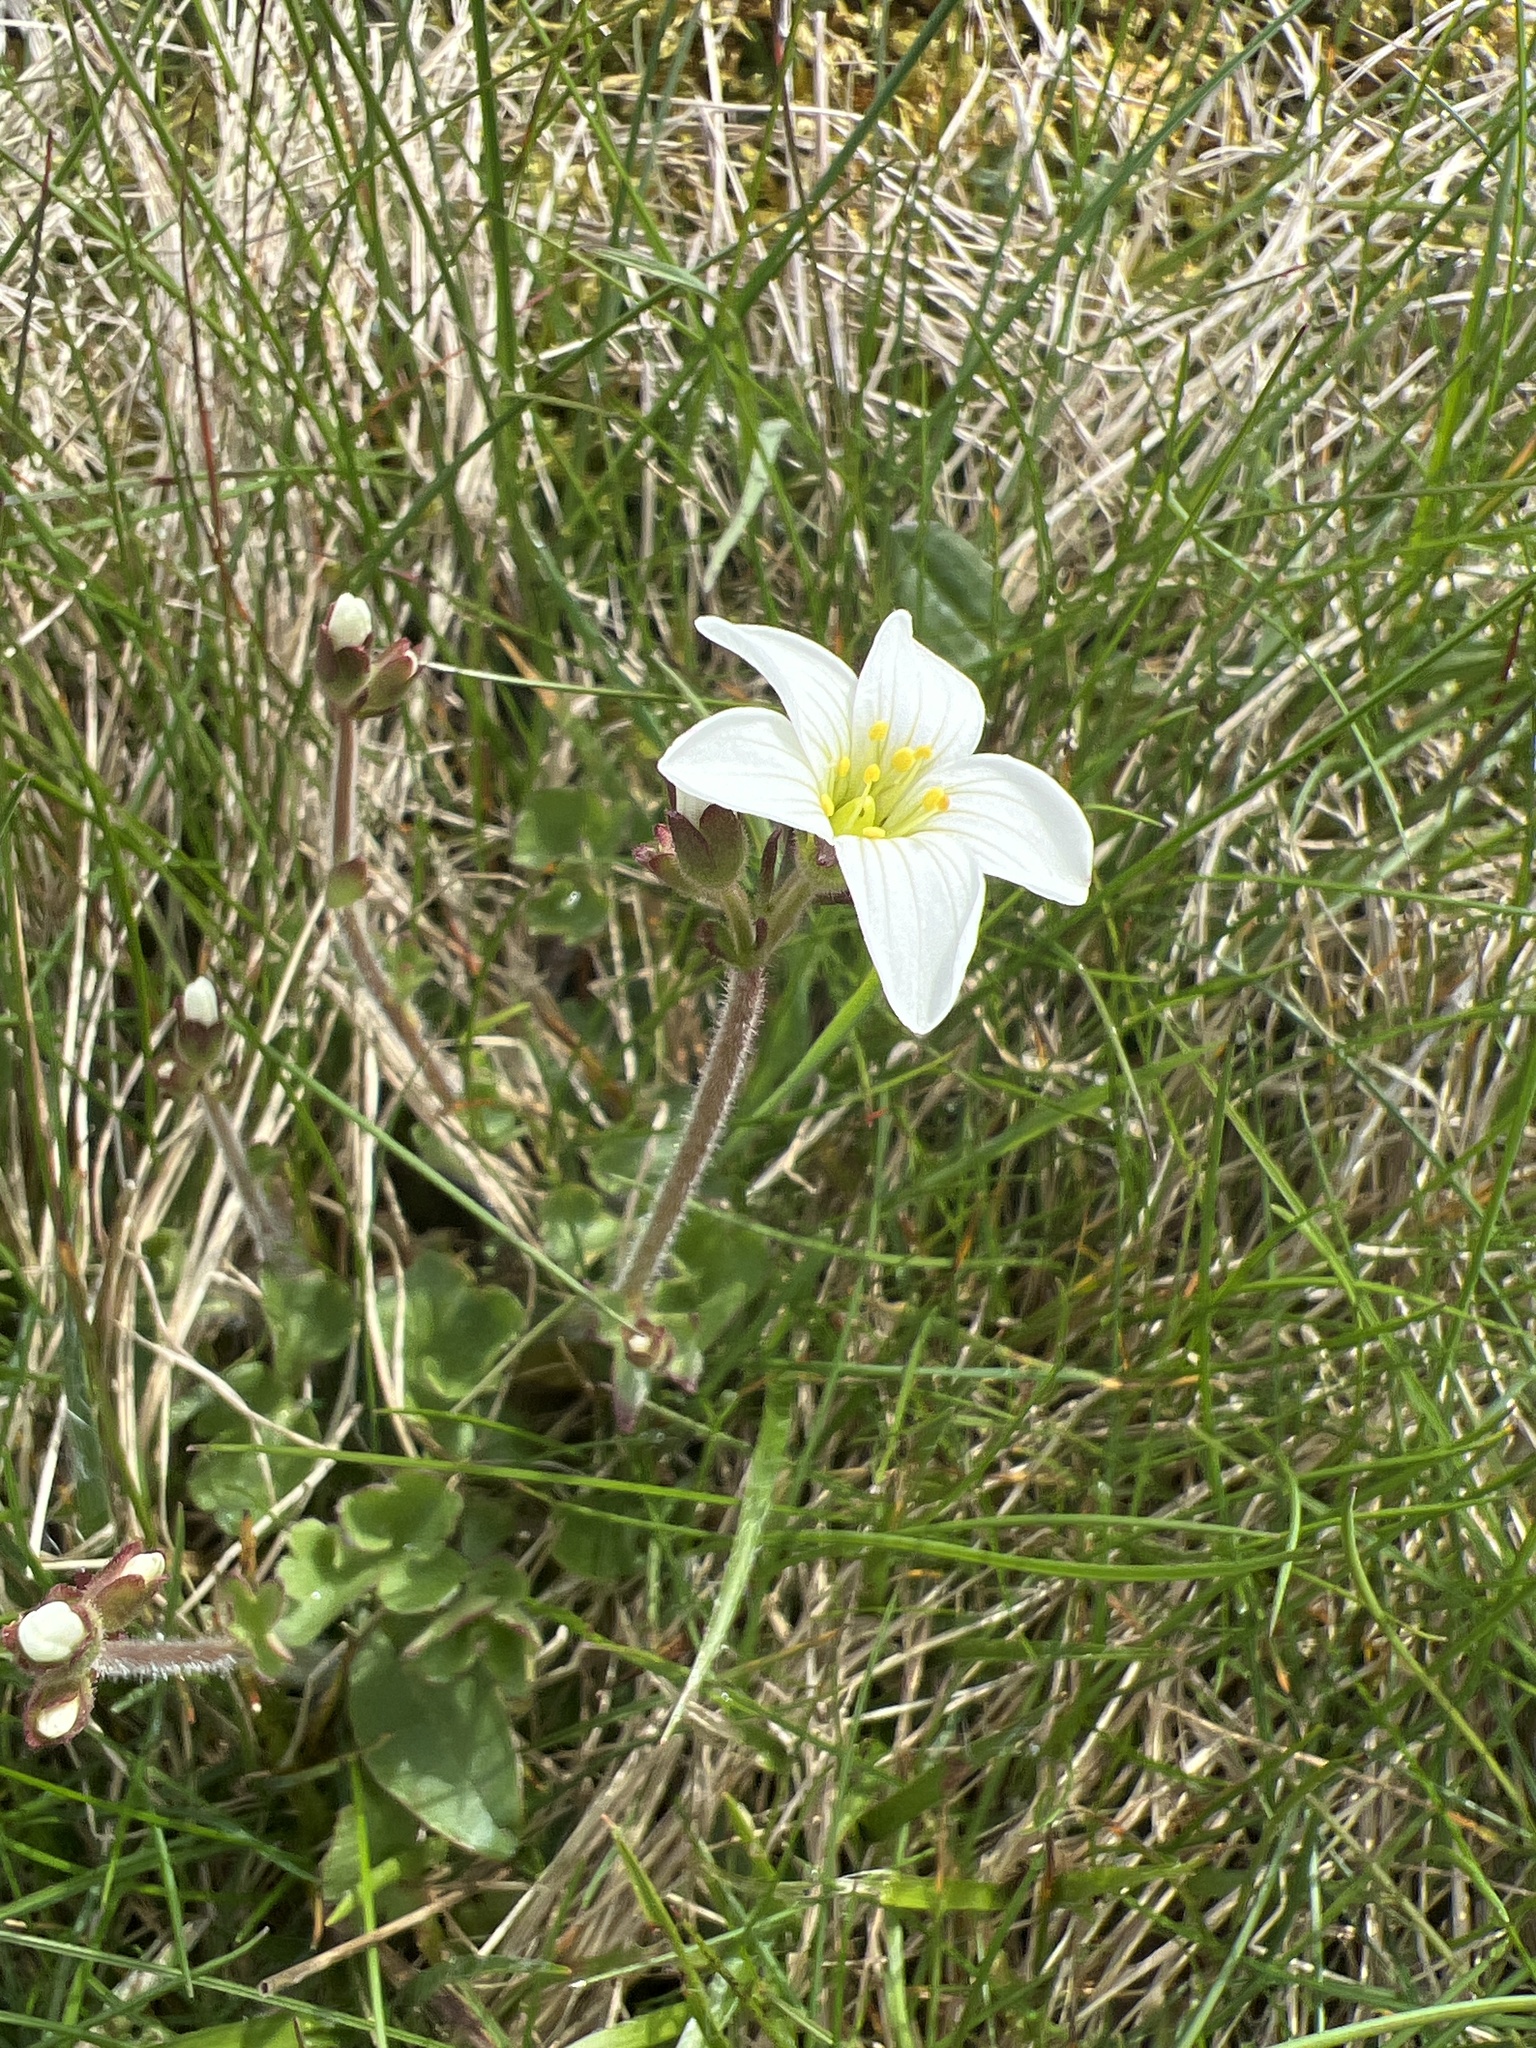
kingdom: Plantae
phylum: Tracheophyta
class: Magnoliopsida
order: Saxifragales
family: Saxifragaceae
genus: Saxifraga
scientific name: Saxifraga granulata
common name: Meadow saxifrage
